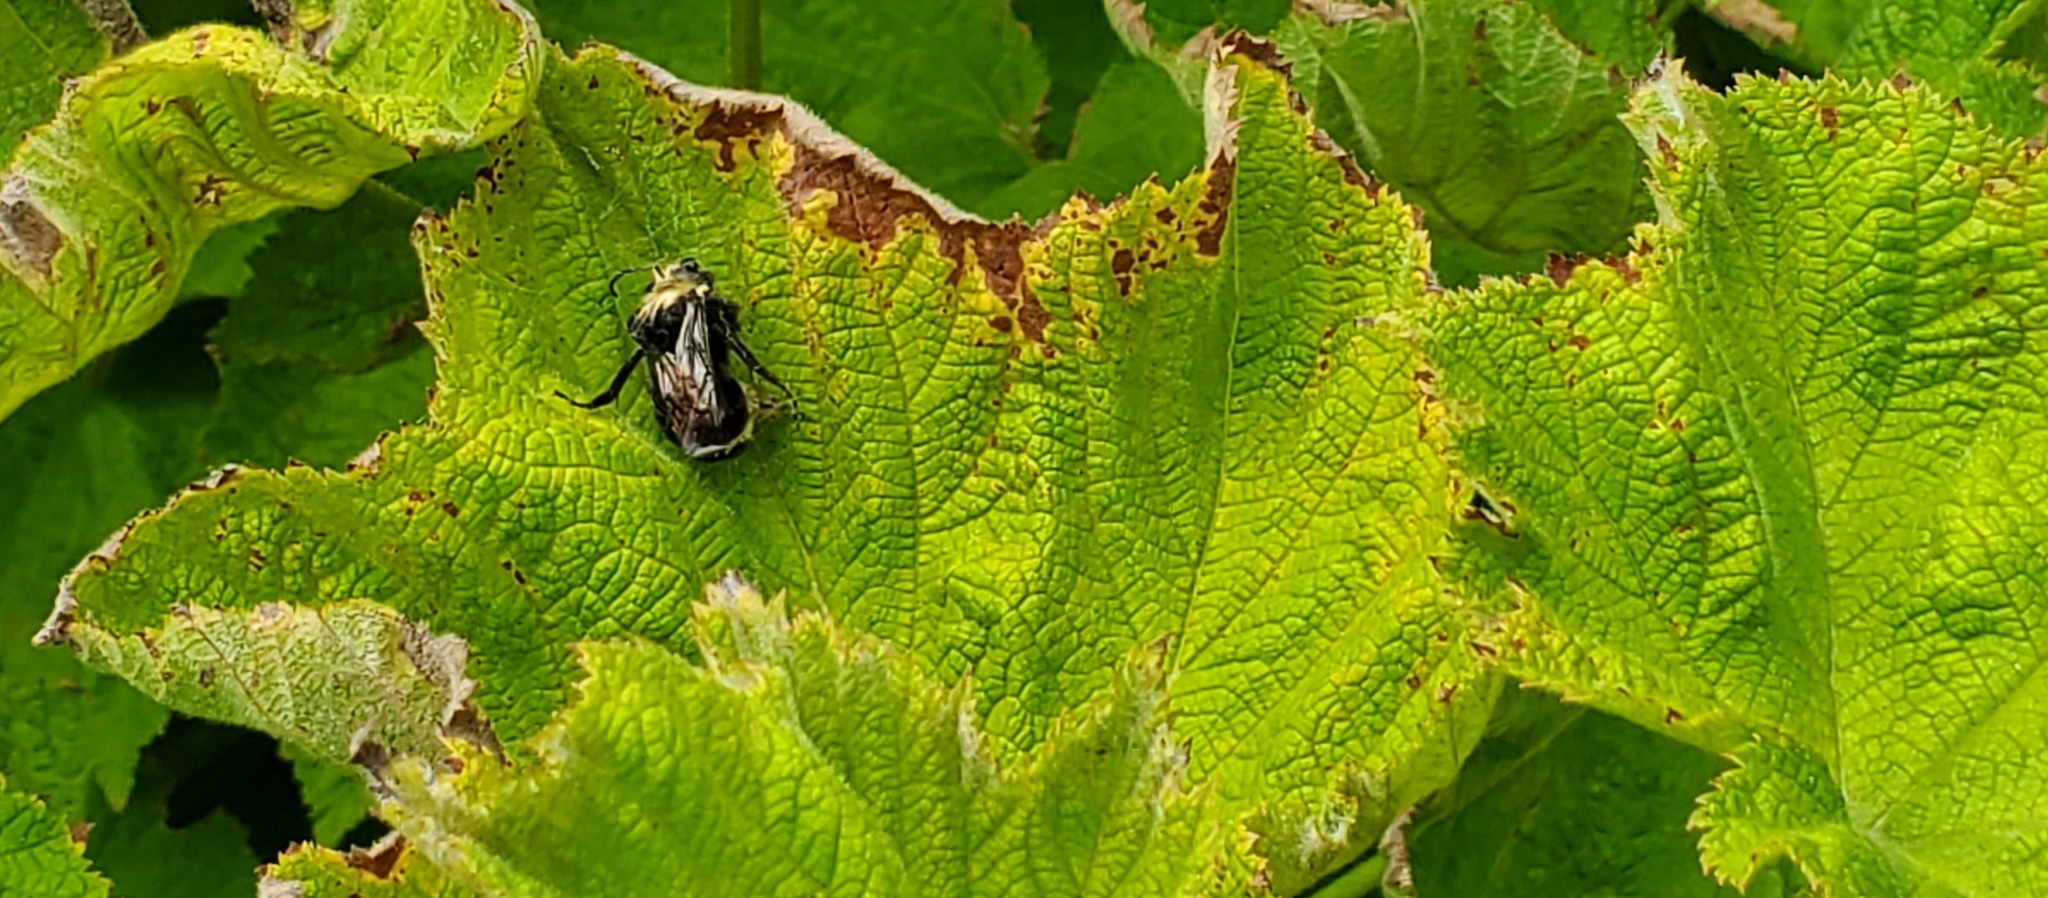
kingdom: Animalia
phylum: Arthropoda
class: Insecta
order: Hymenoptera
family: Apidae
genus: Bombus
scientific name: Bombus vosnesenskii
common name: Vosnesensky bumble bee
